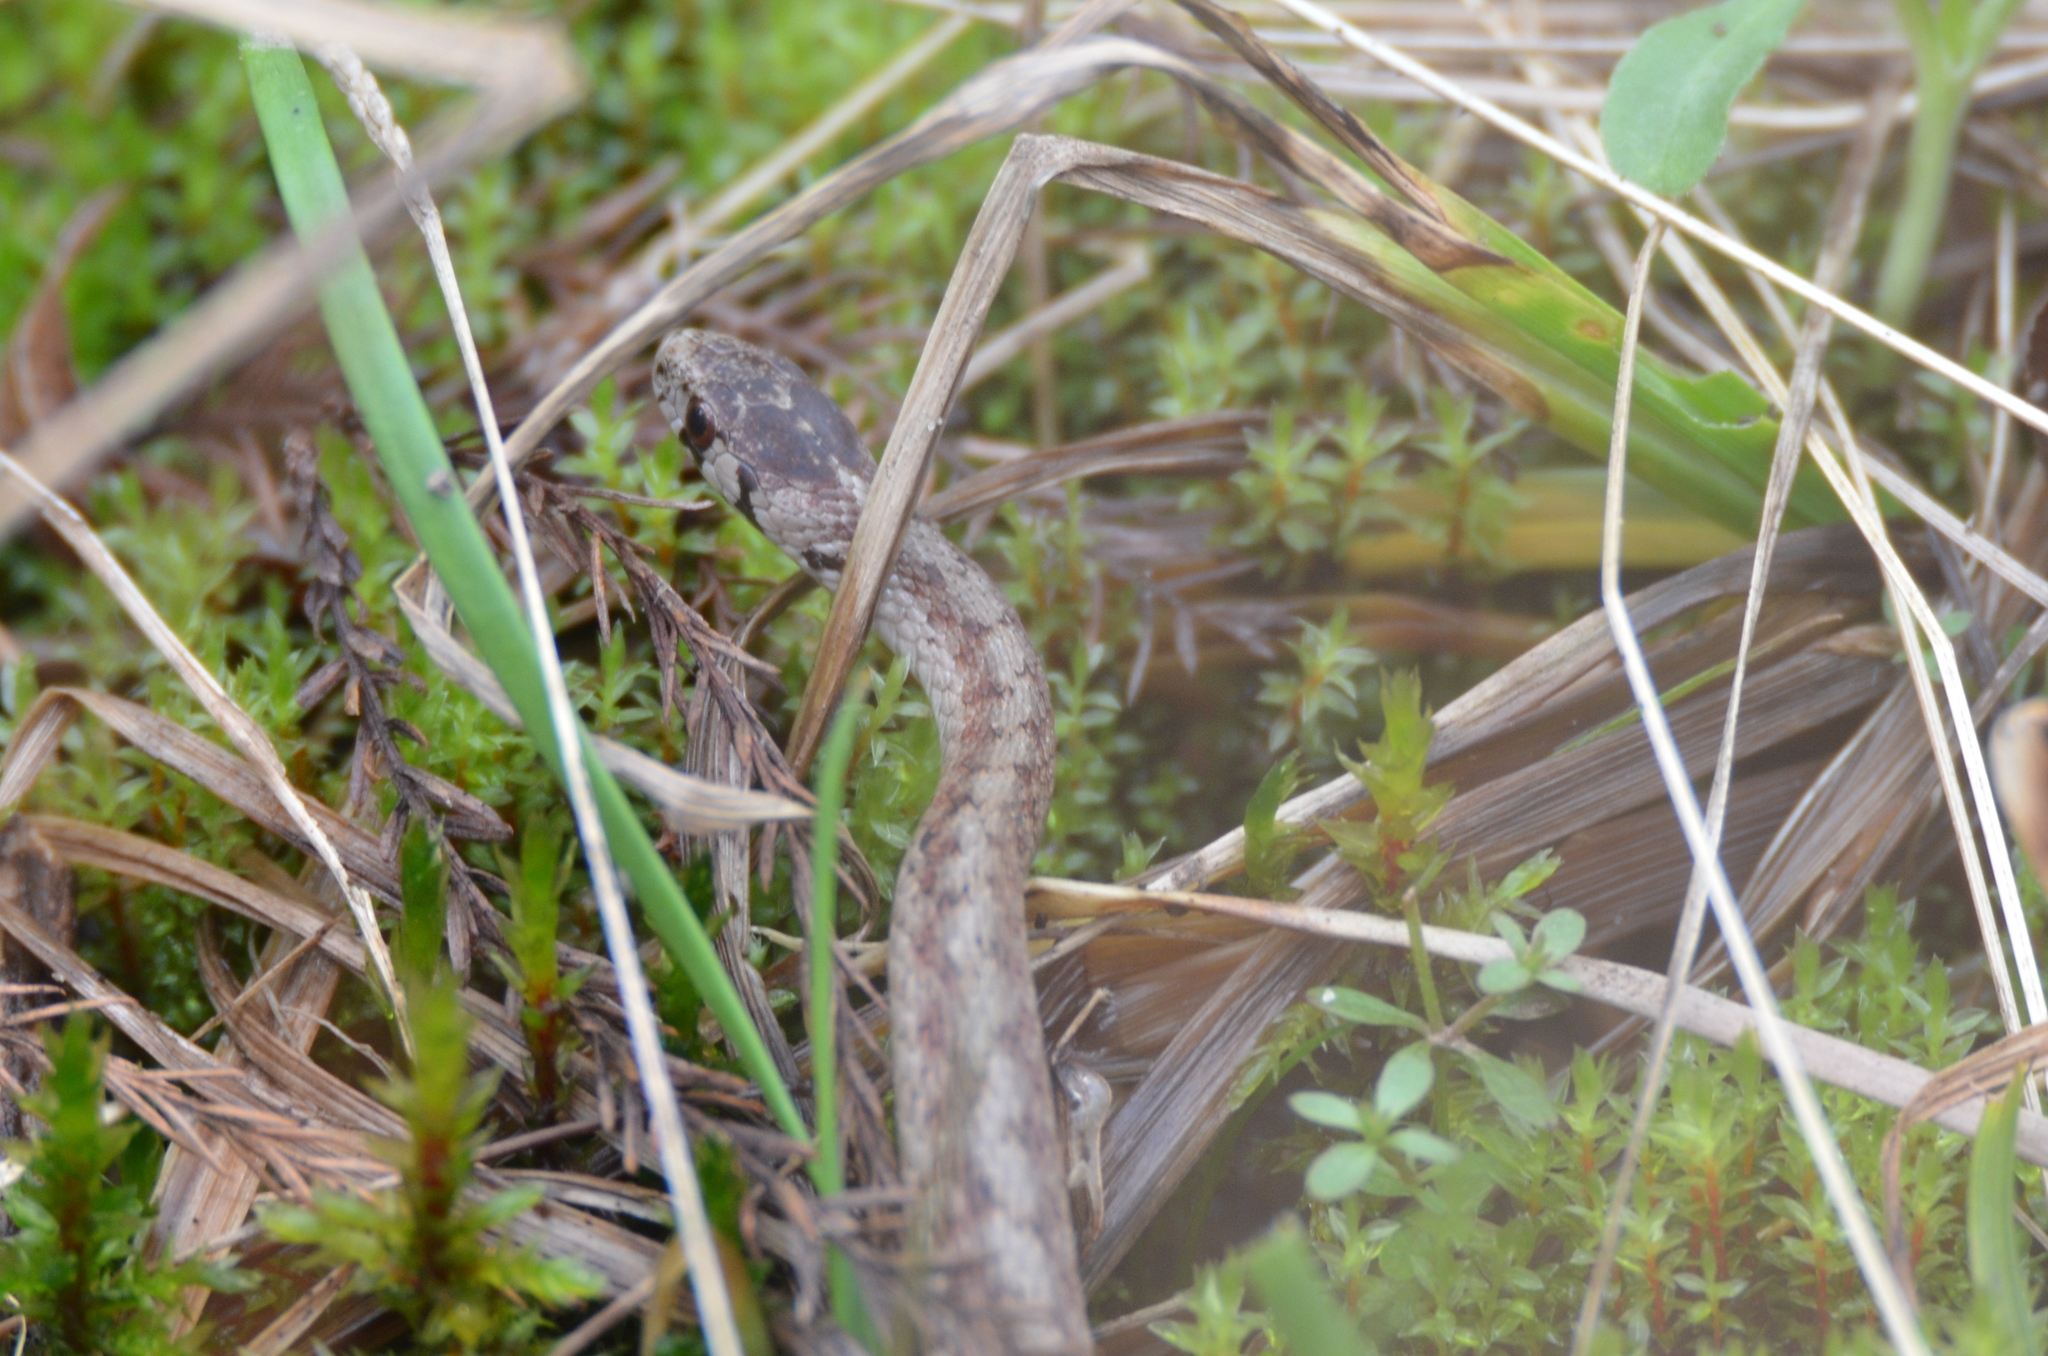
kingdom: Animalia
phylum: Chordata
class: Squamata
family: Colubridae
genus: Storeria
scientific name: Storeria dekayi
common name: (dekay’s) brown snake
